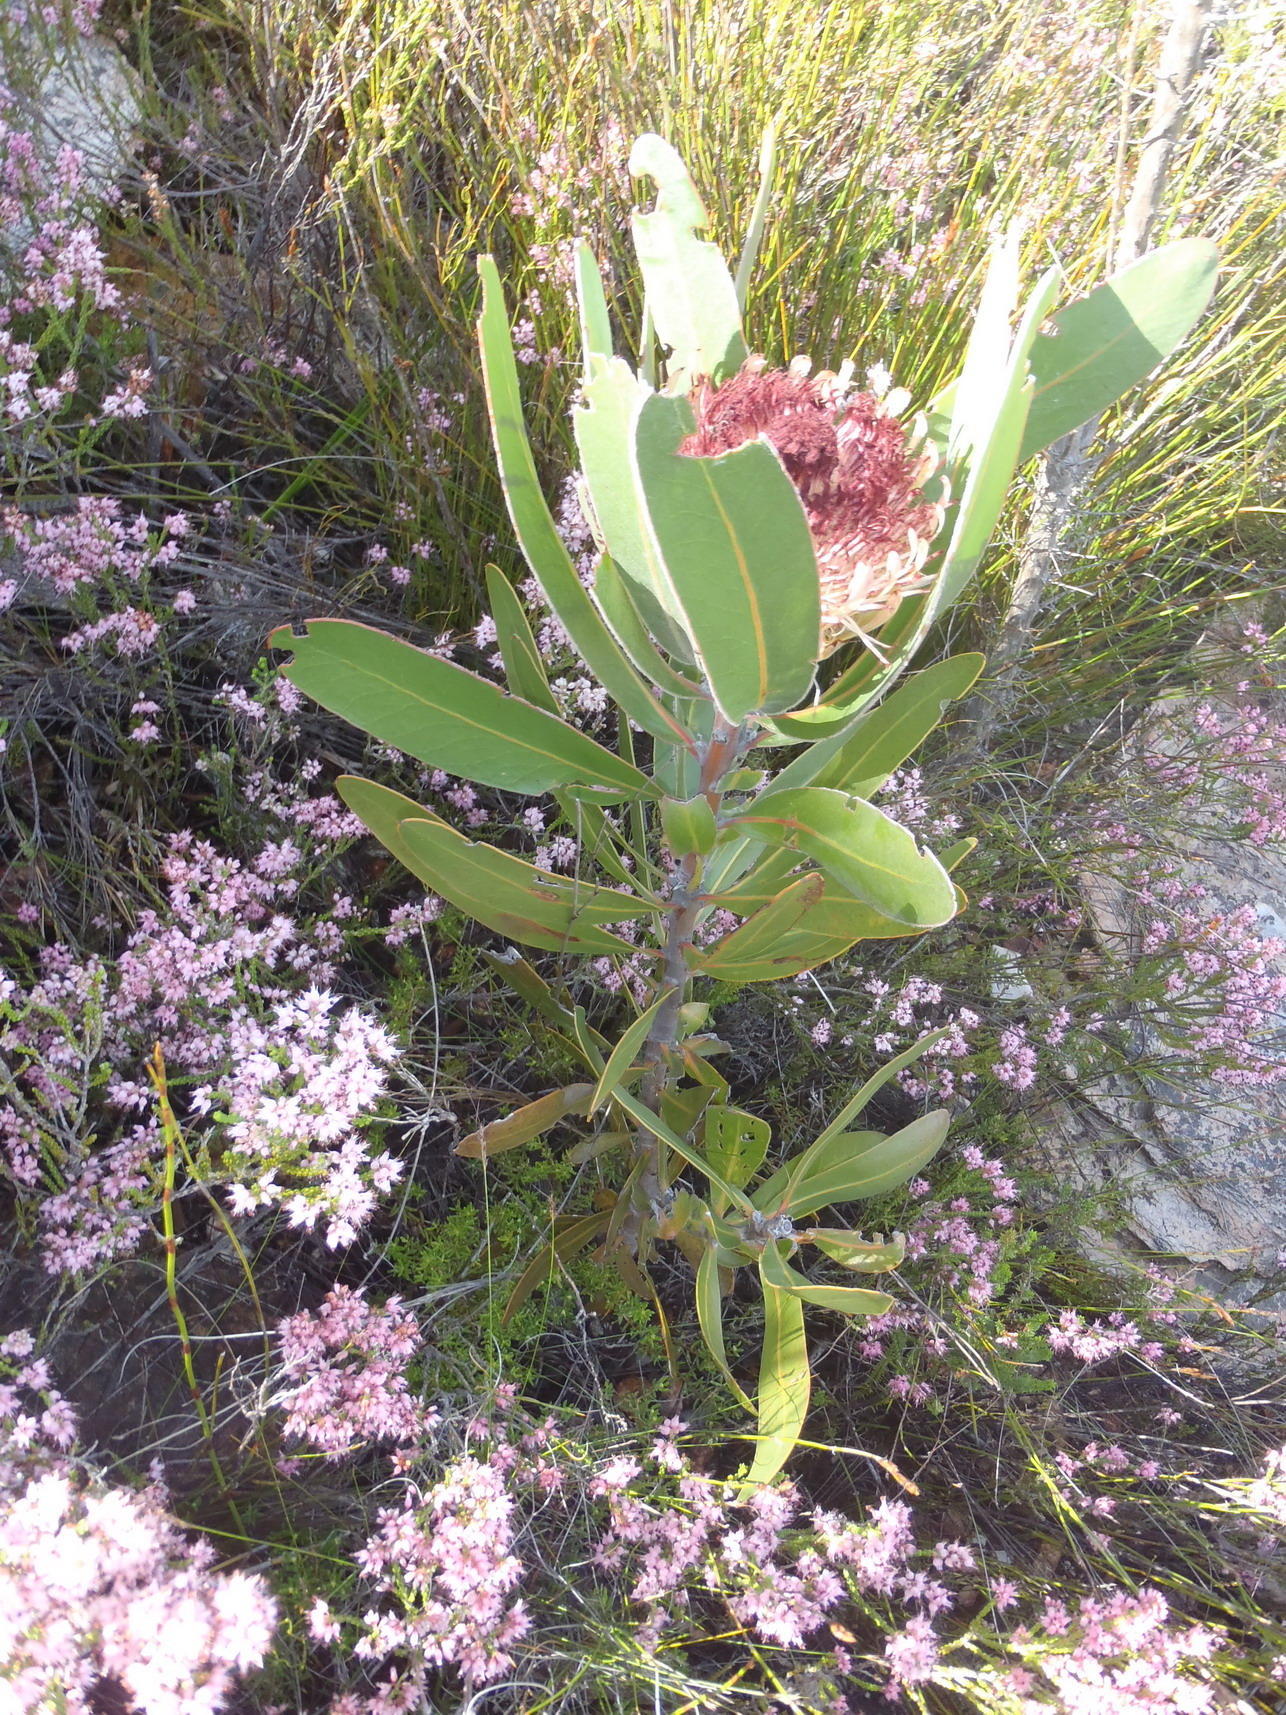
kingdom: Plantae
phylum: Tracheophyta
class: Magnoliopsida
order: Proteales
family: Proteaceae
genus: Protea
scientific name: Protea lorifolia
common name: Strap-leaved protea
